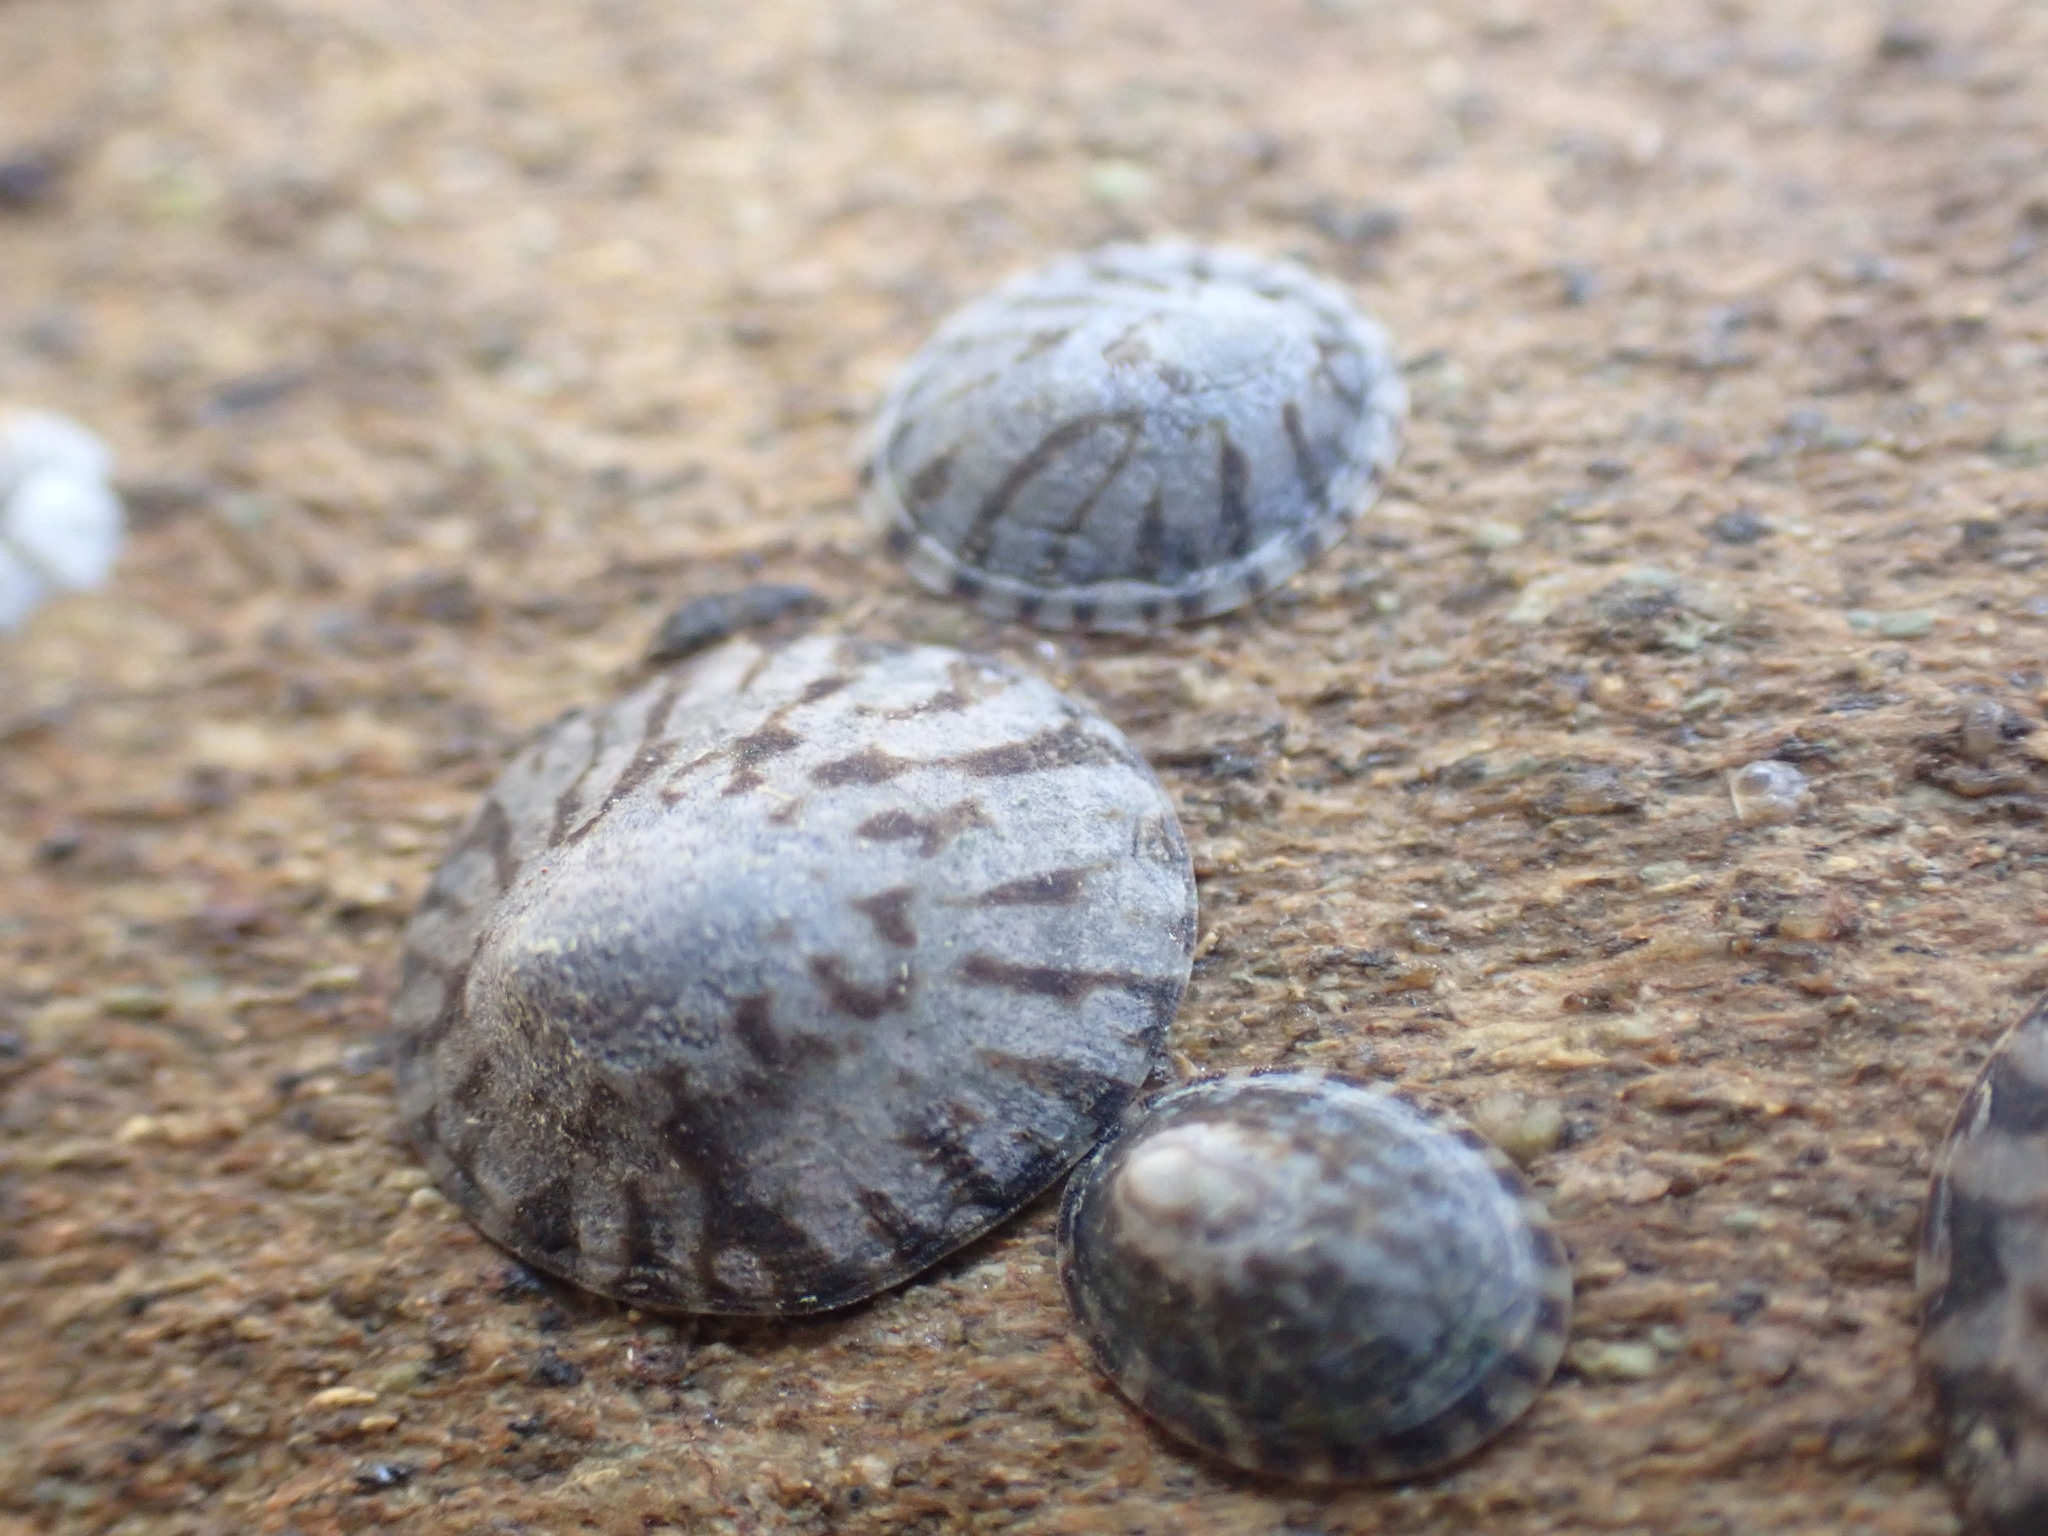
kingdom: Animalia
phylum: Mollusca
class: Gastropoda
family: Nacellidae
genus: Cellana
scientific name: Cellana radians
